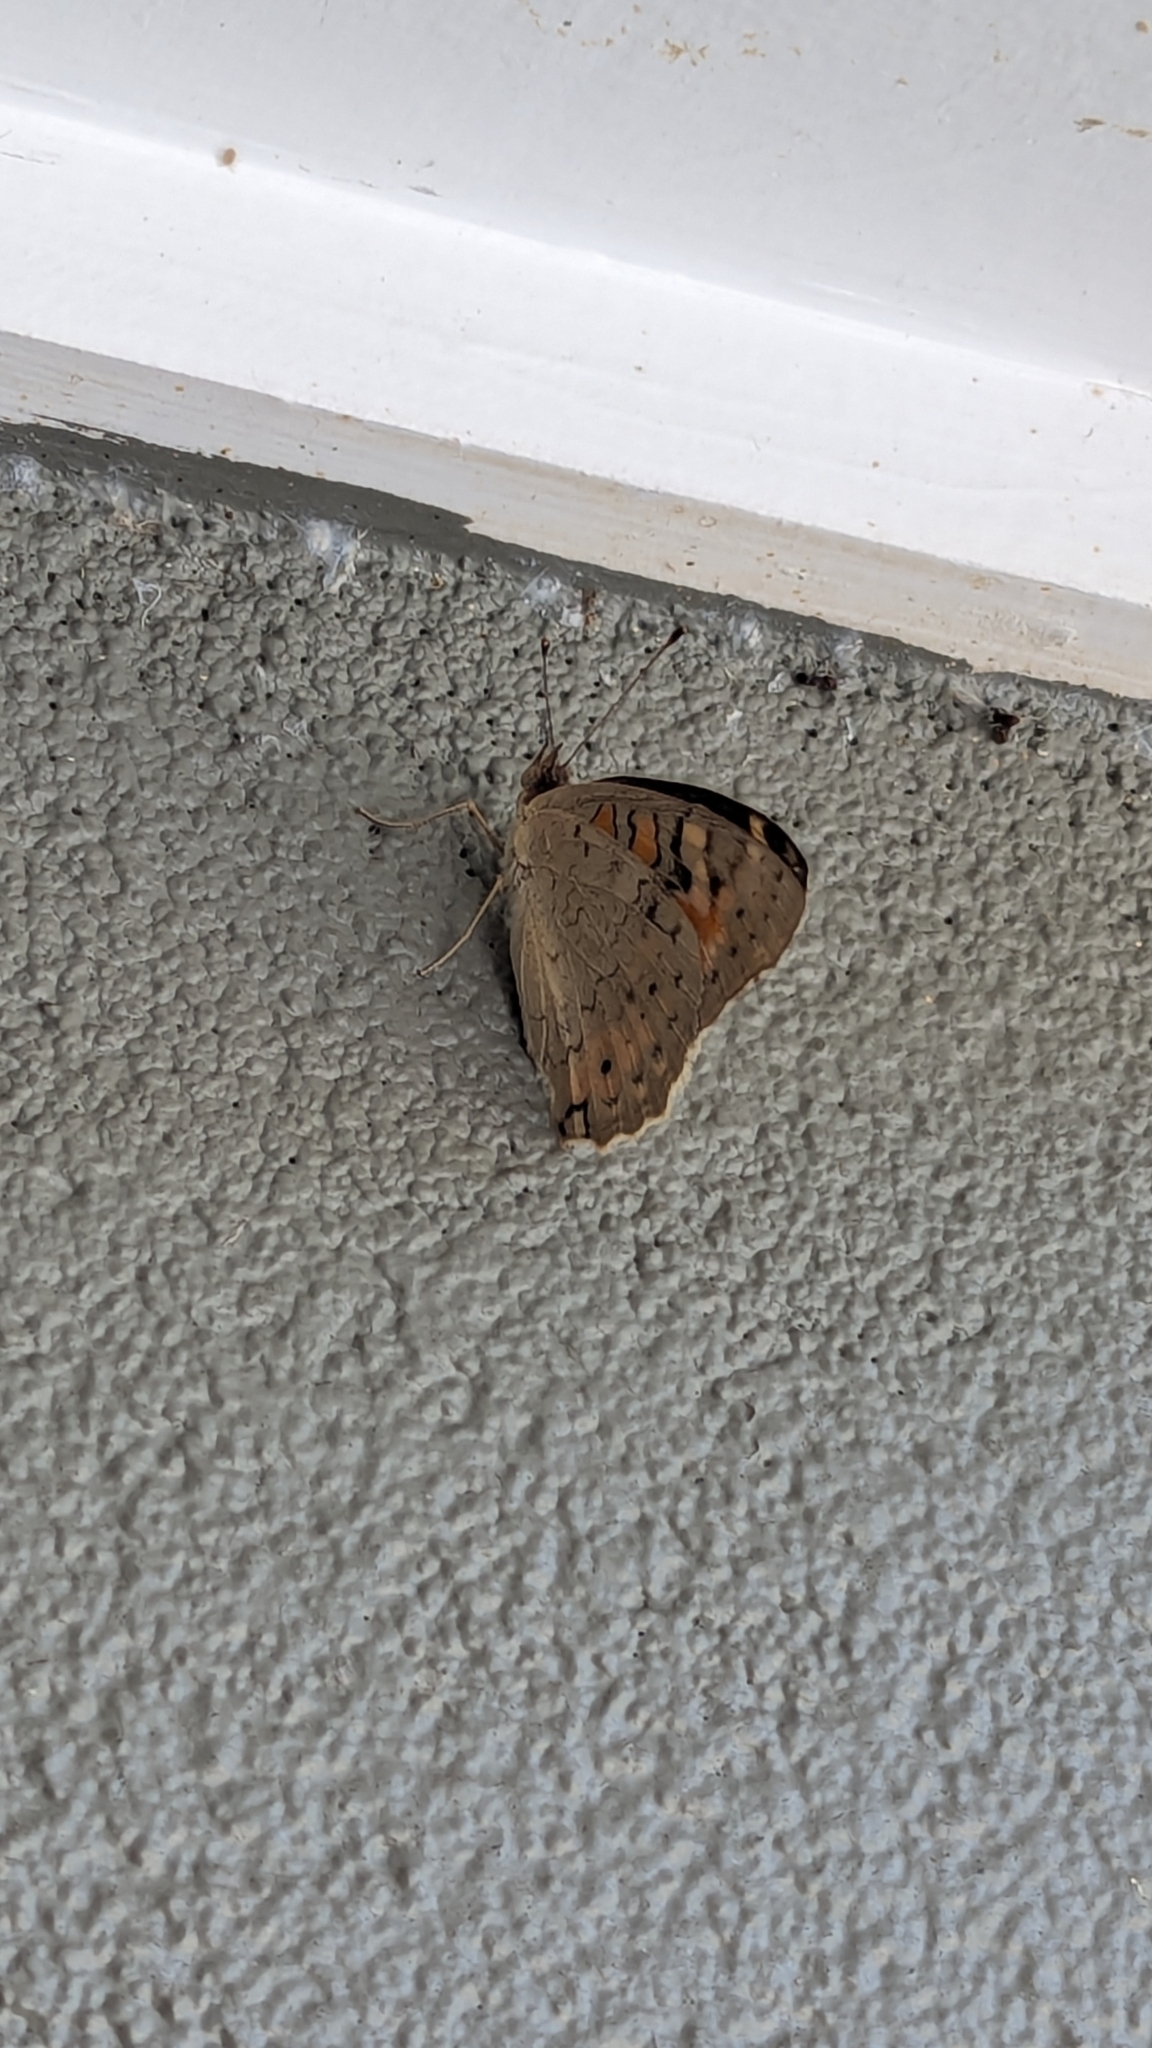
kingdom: Animalia
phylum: Arthropoda
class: Insecta
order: Lepidoptera
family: Nymphalidae
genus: Junonia
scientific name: Junonia villida
